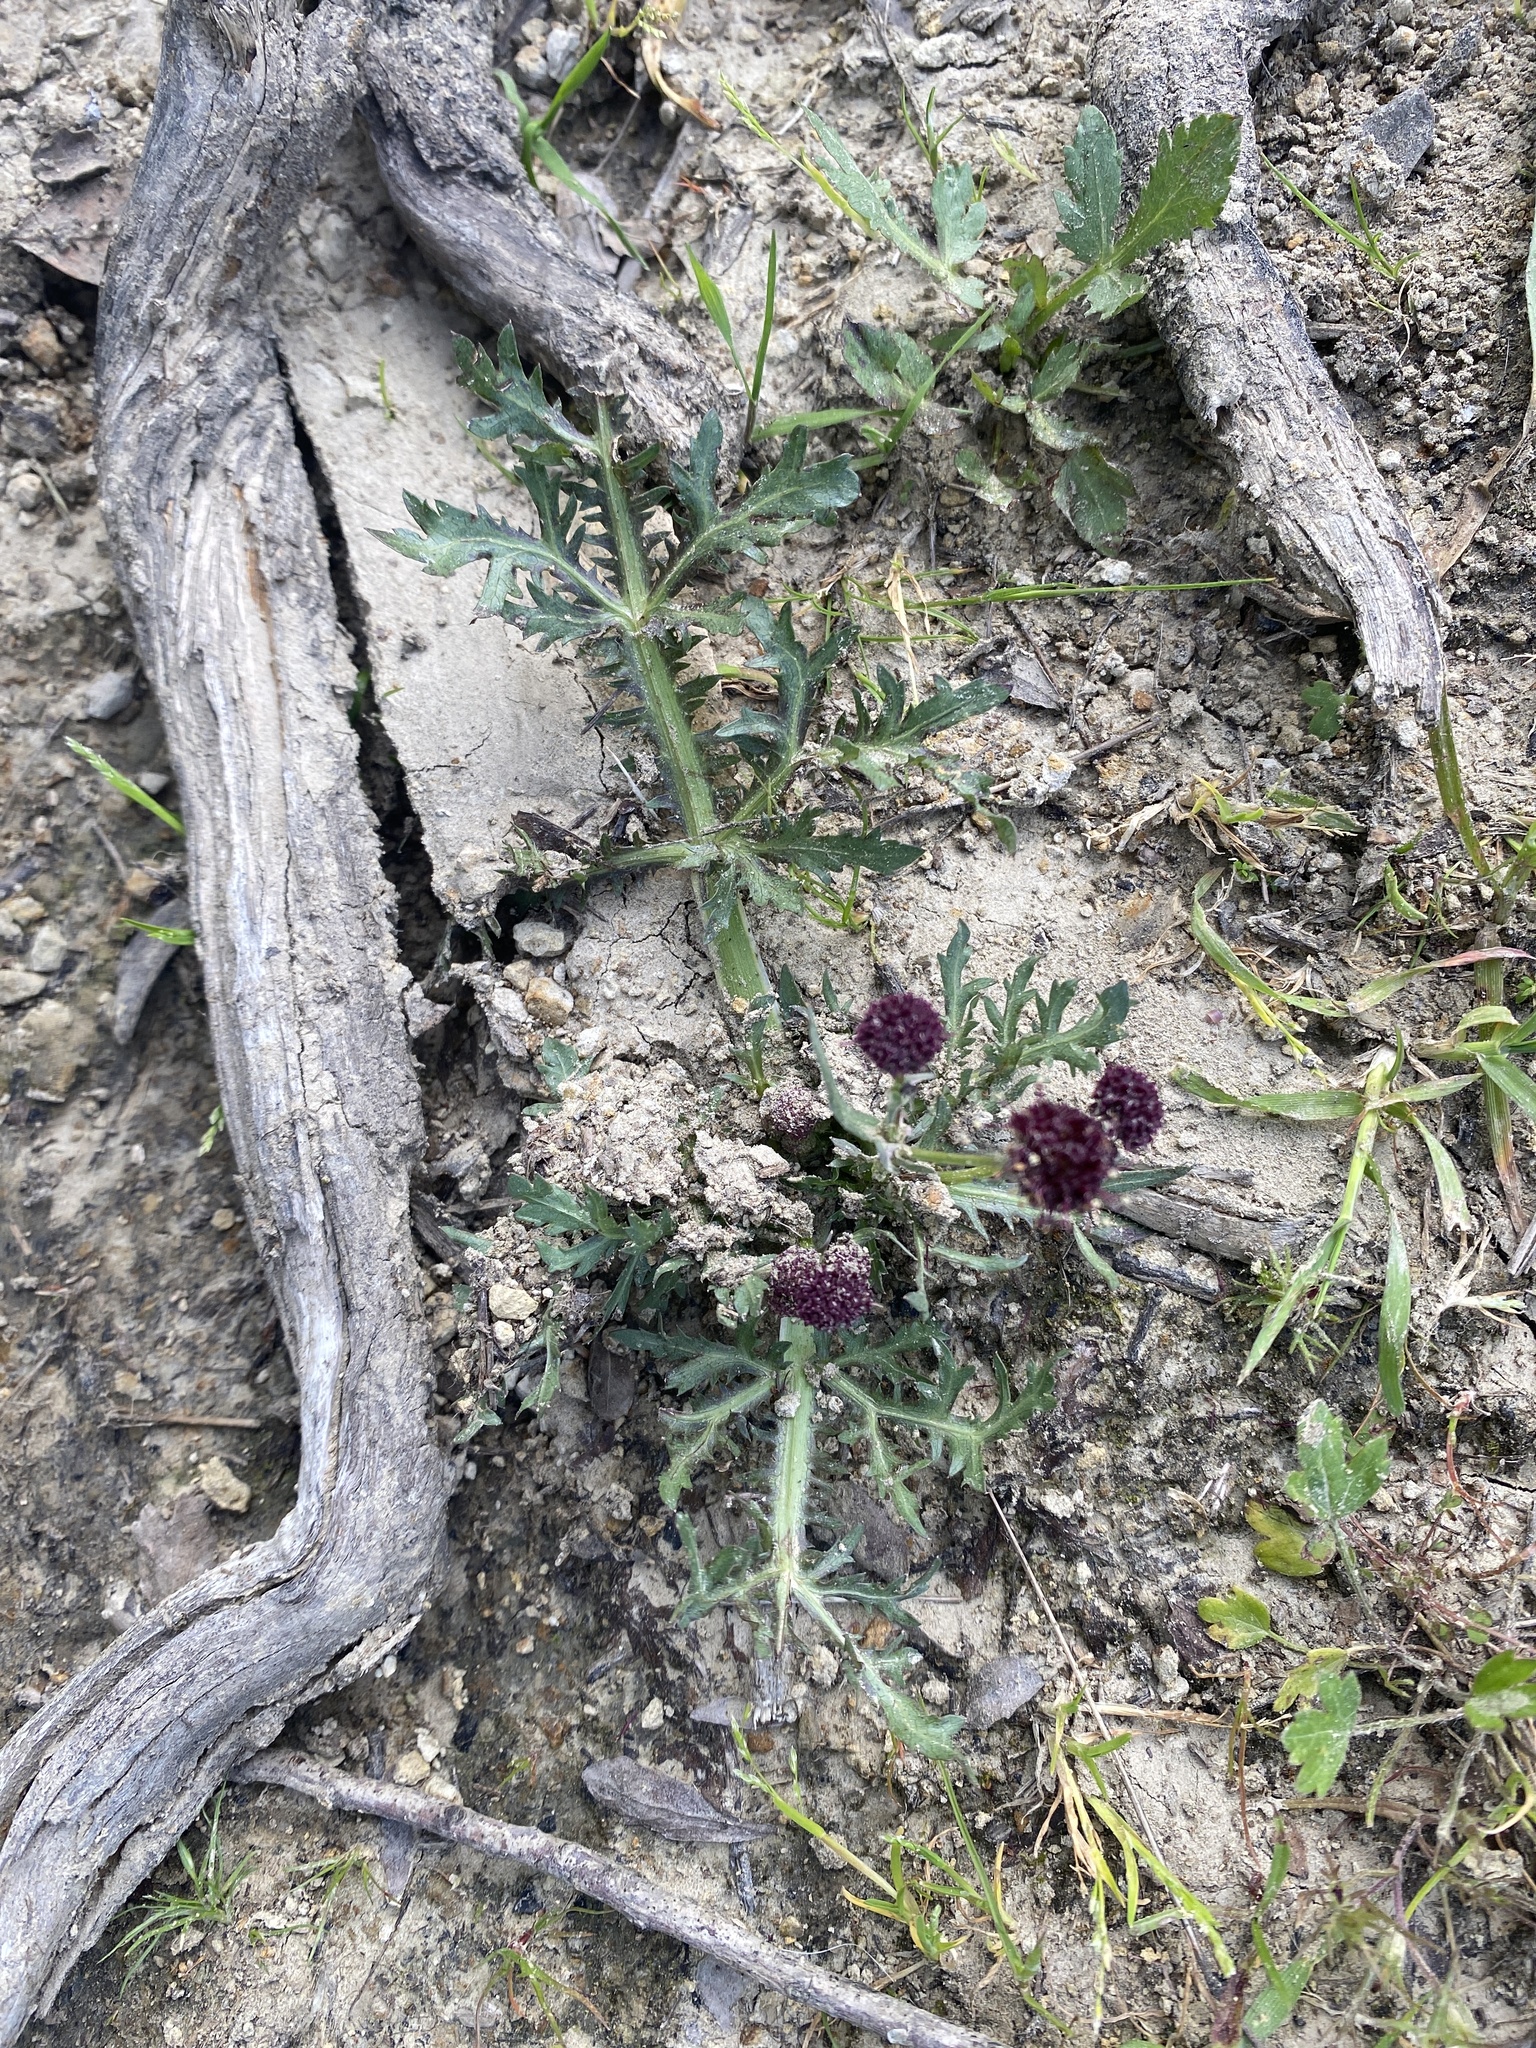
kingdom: Plantae
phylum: Tracheophyta
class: Magnoliopsida
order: Apiales
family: Apiaceae
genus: Sanicula
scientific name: Sanicula bipinnatifida
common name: Shoe-buttons
